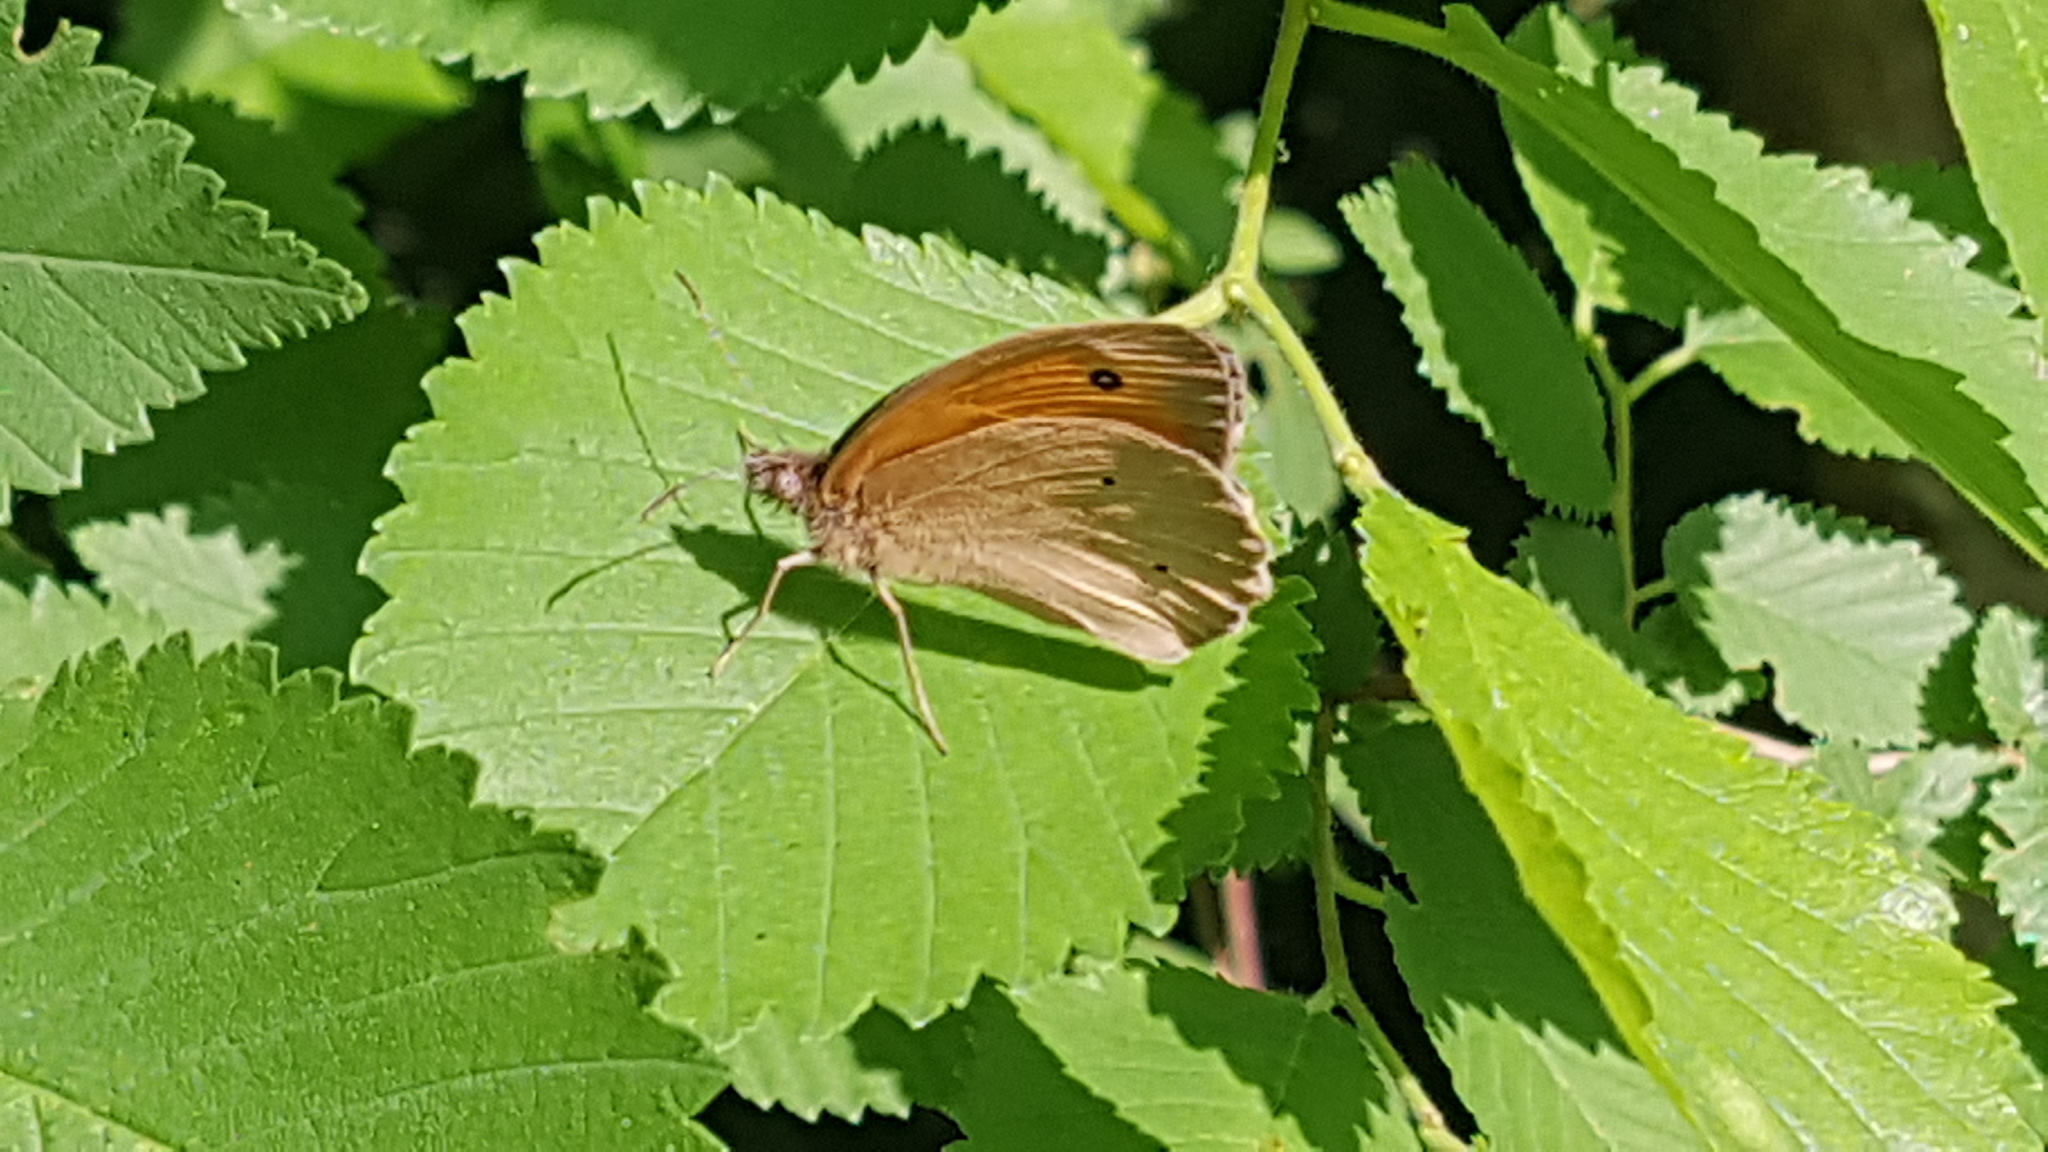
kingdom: Animalia
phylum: Arthropoda
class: Insecta
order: Lepidoptera
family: Nymphalidae
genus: Maniola
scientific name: Maniola jurtina
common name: Meadow brown
